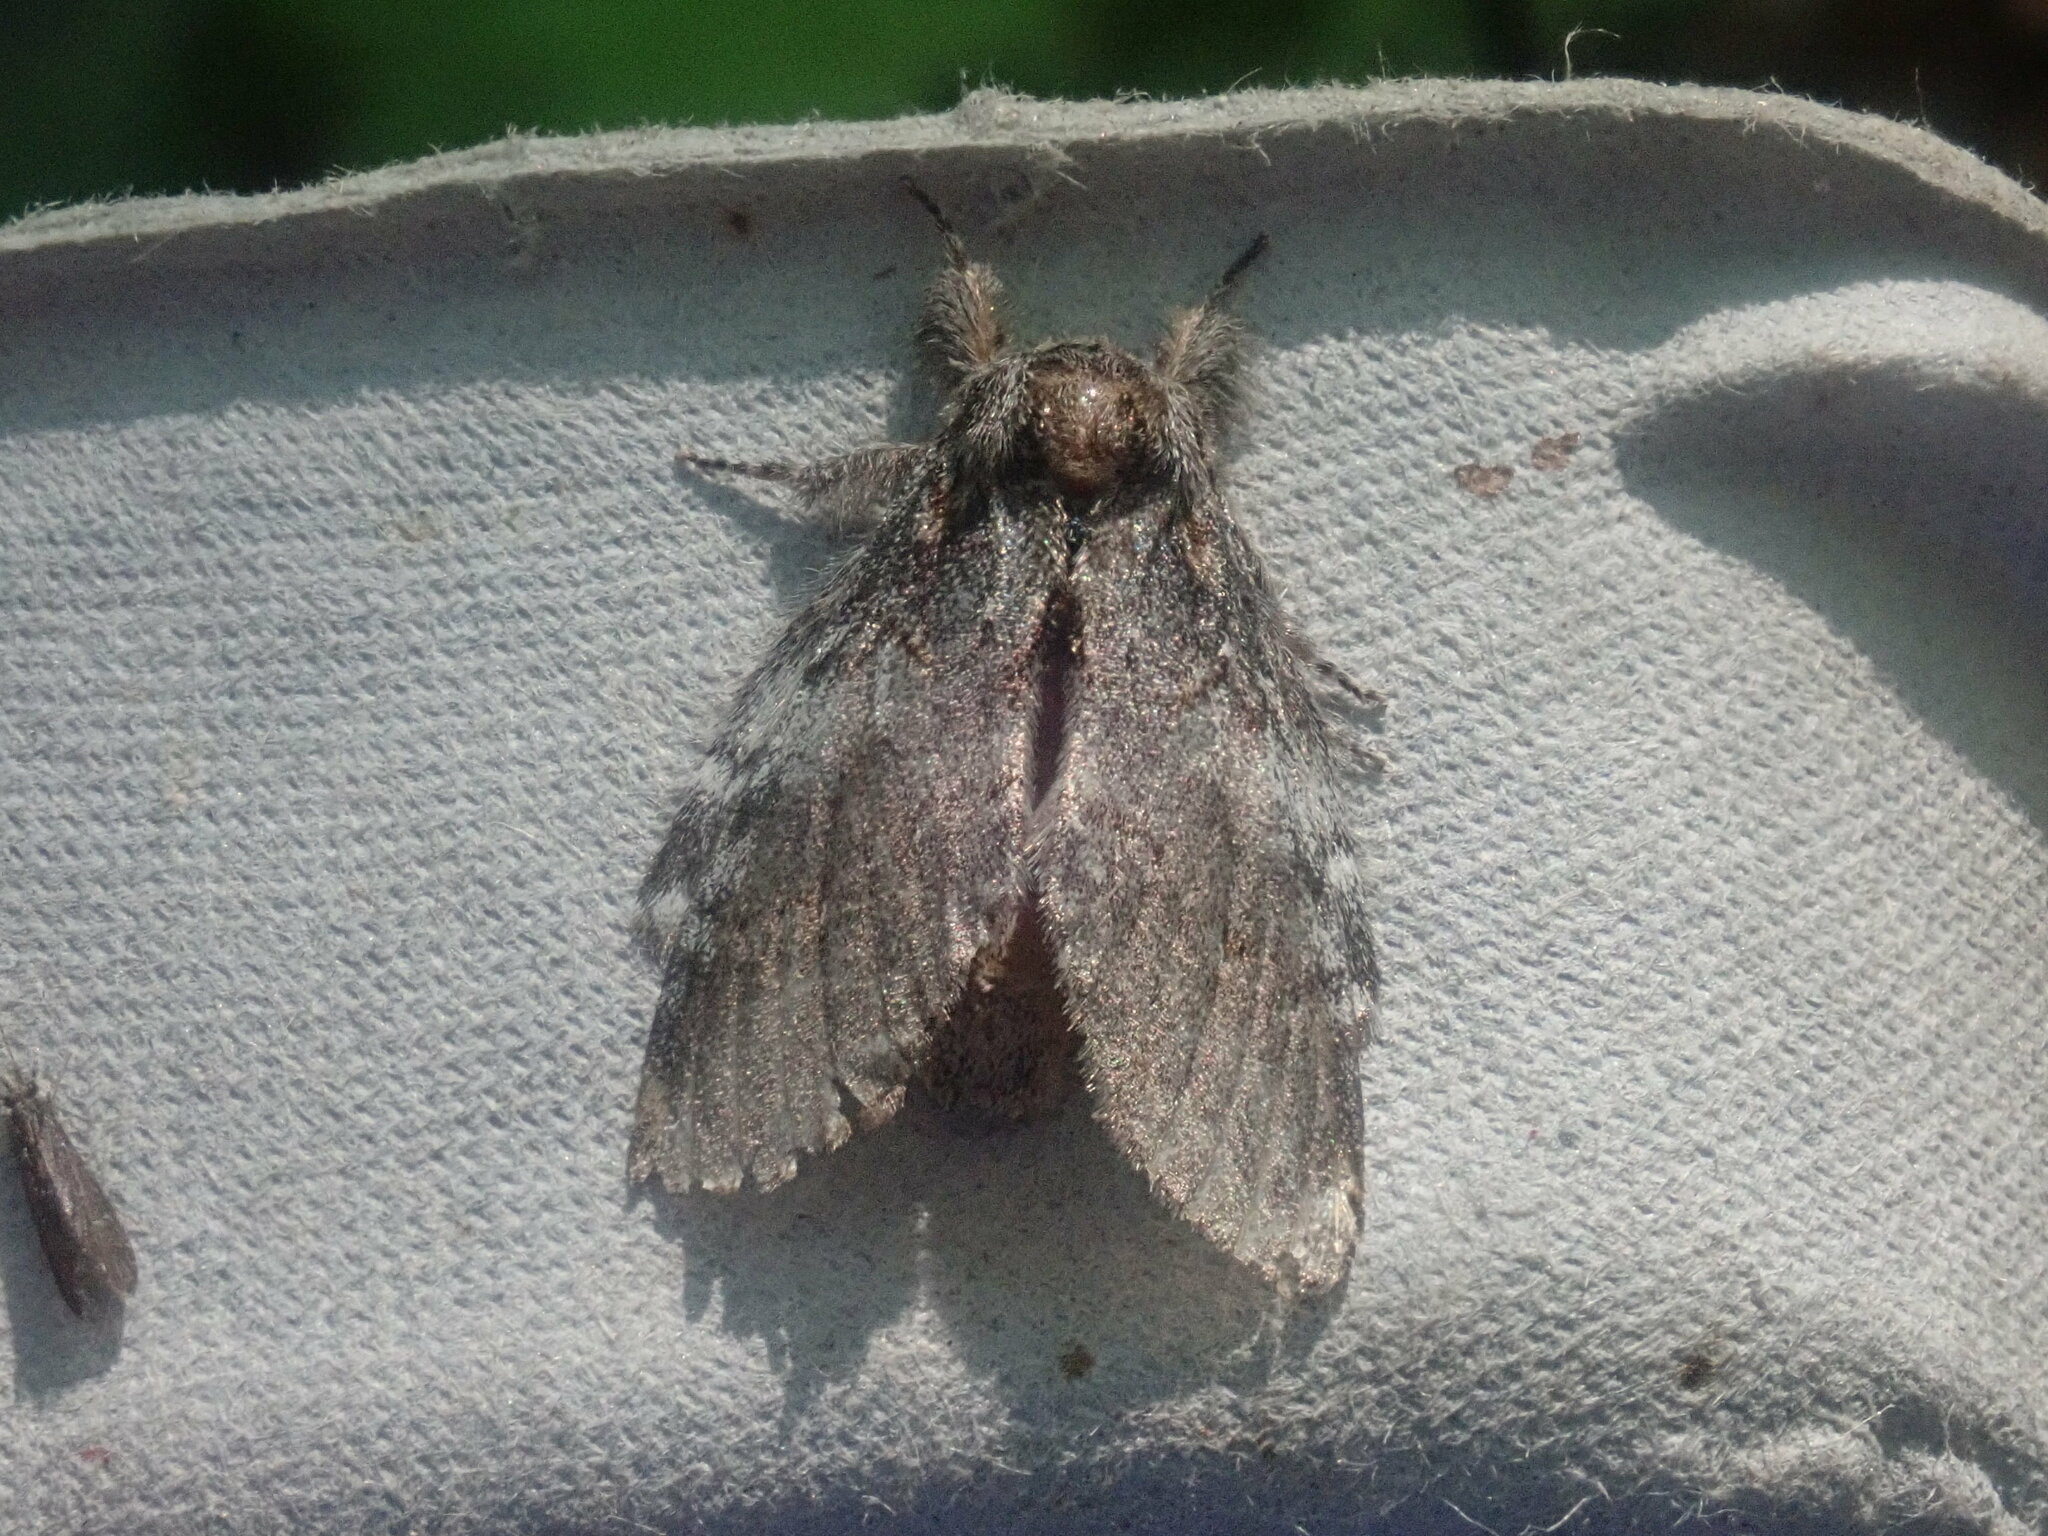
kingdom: Animalia
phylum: Arthropoda
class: Insecta
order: Lepidoptera
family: Notodontidae
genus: Peridea
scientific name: Peridea angulosa
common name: Angulose prominent
